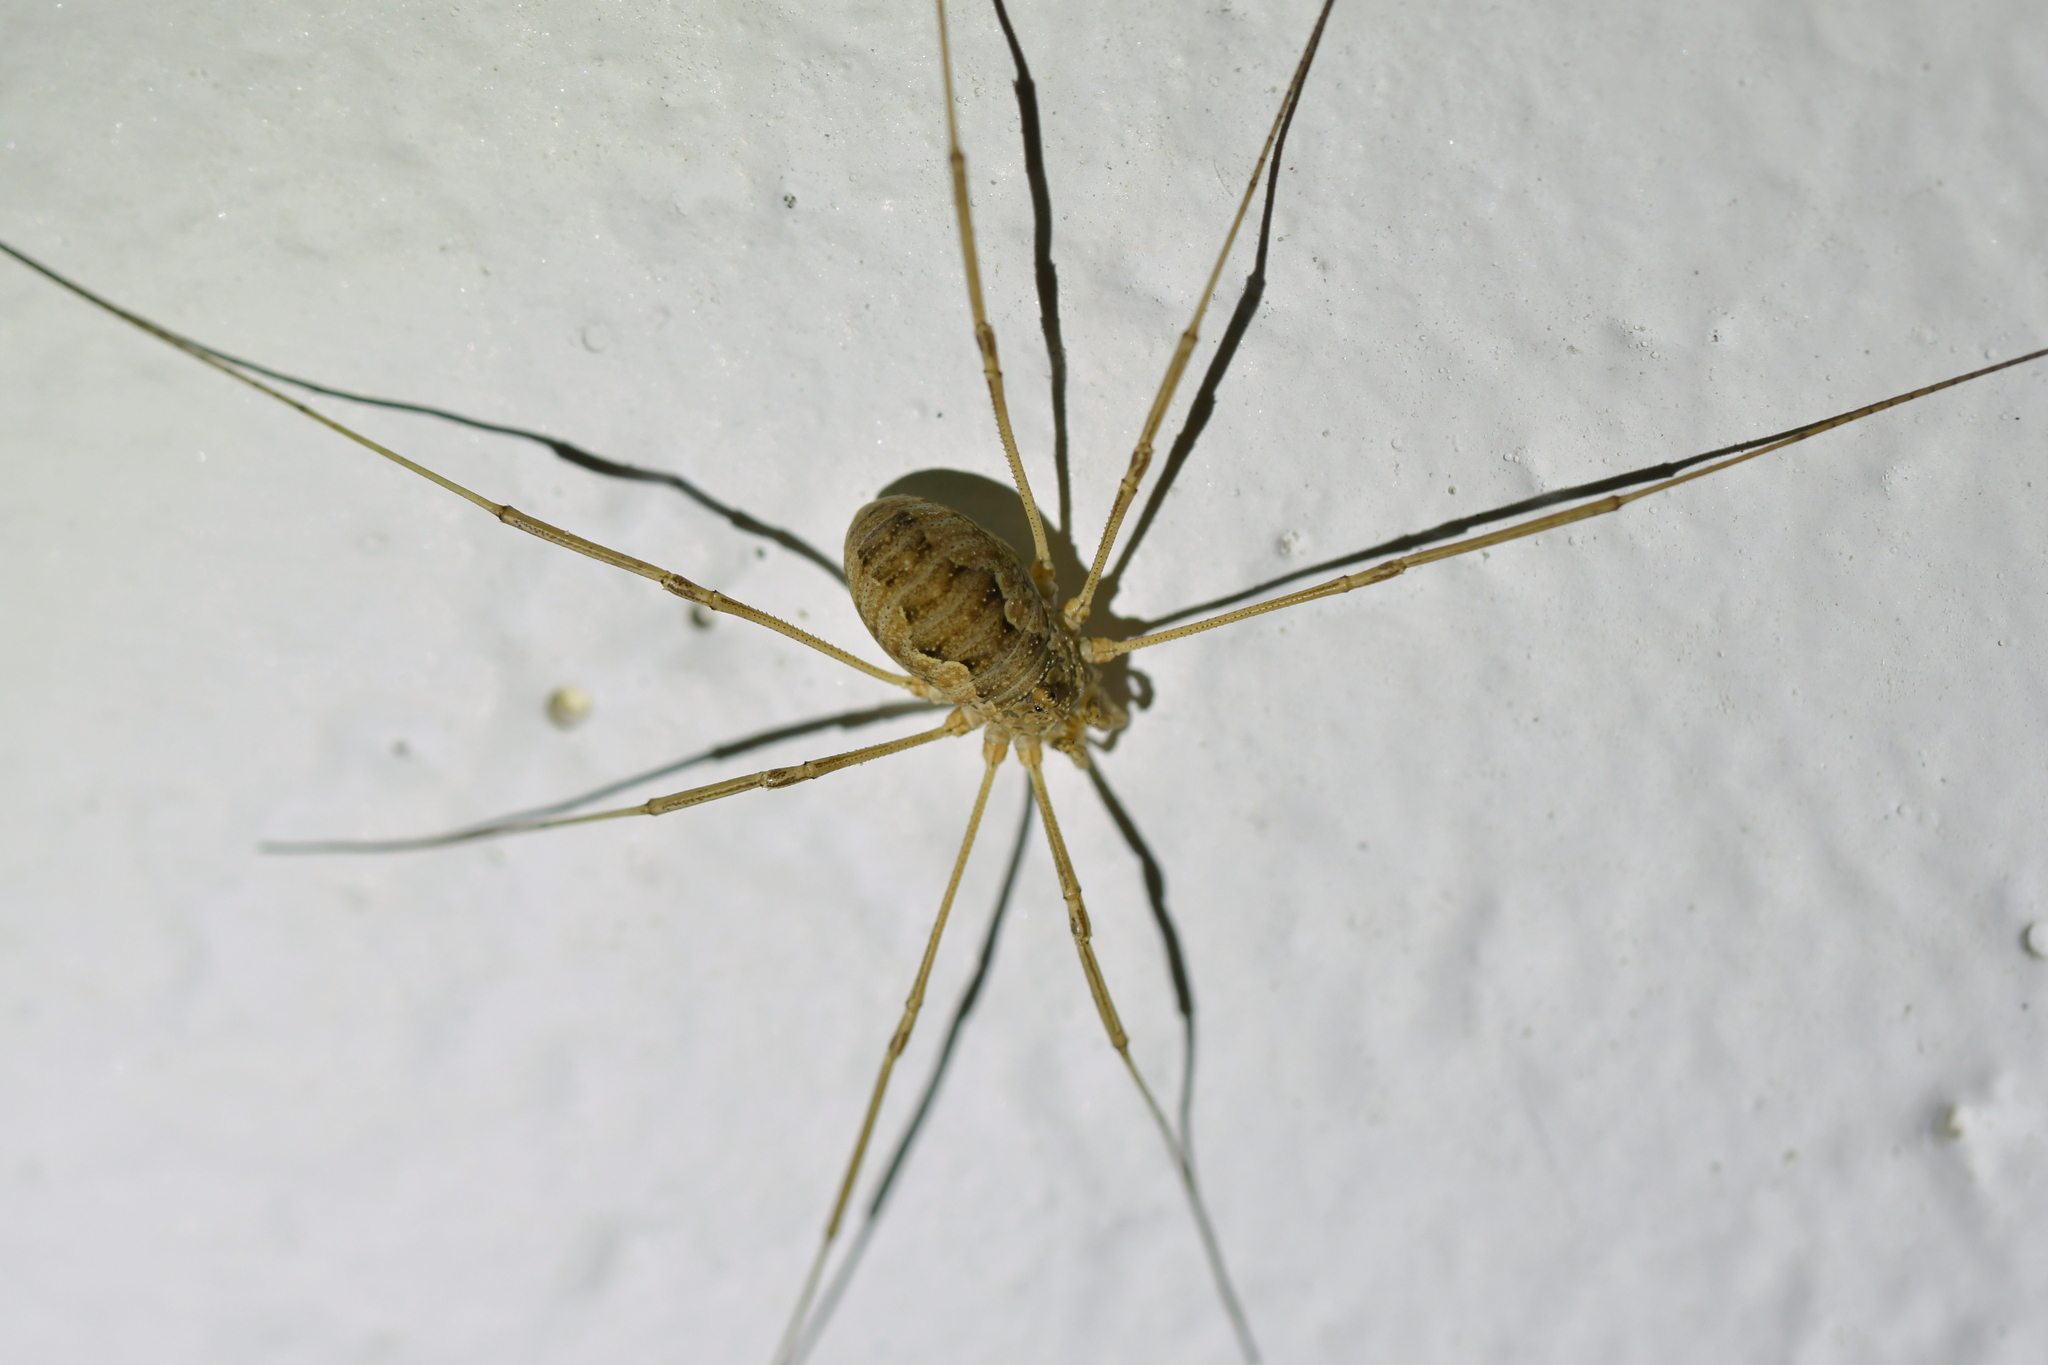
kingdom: Animalia
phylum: Arthropoda
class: Arachnida
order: Opiliones
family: Phalangiidae
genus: Phalangium
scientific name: Phalangium opilio
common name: Daddy longleg
